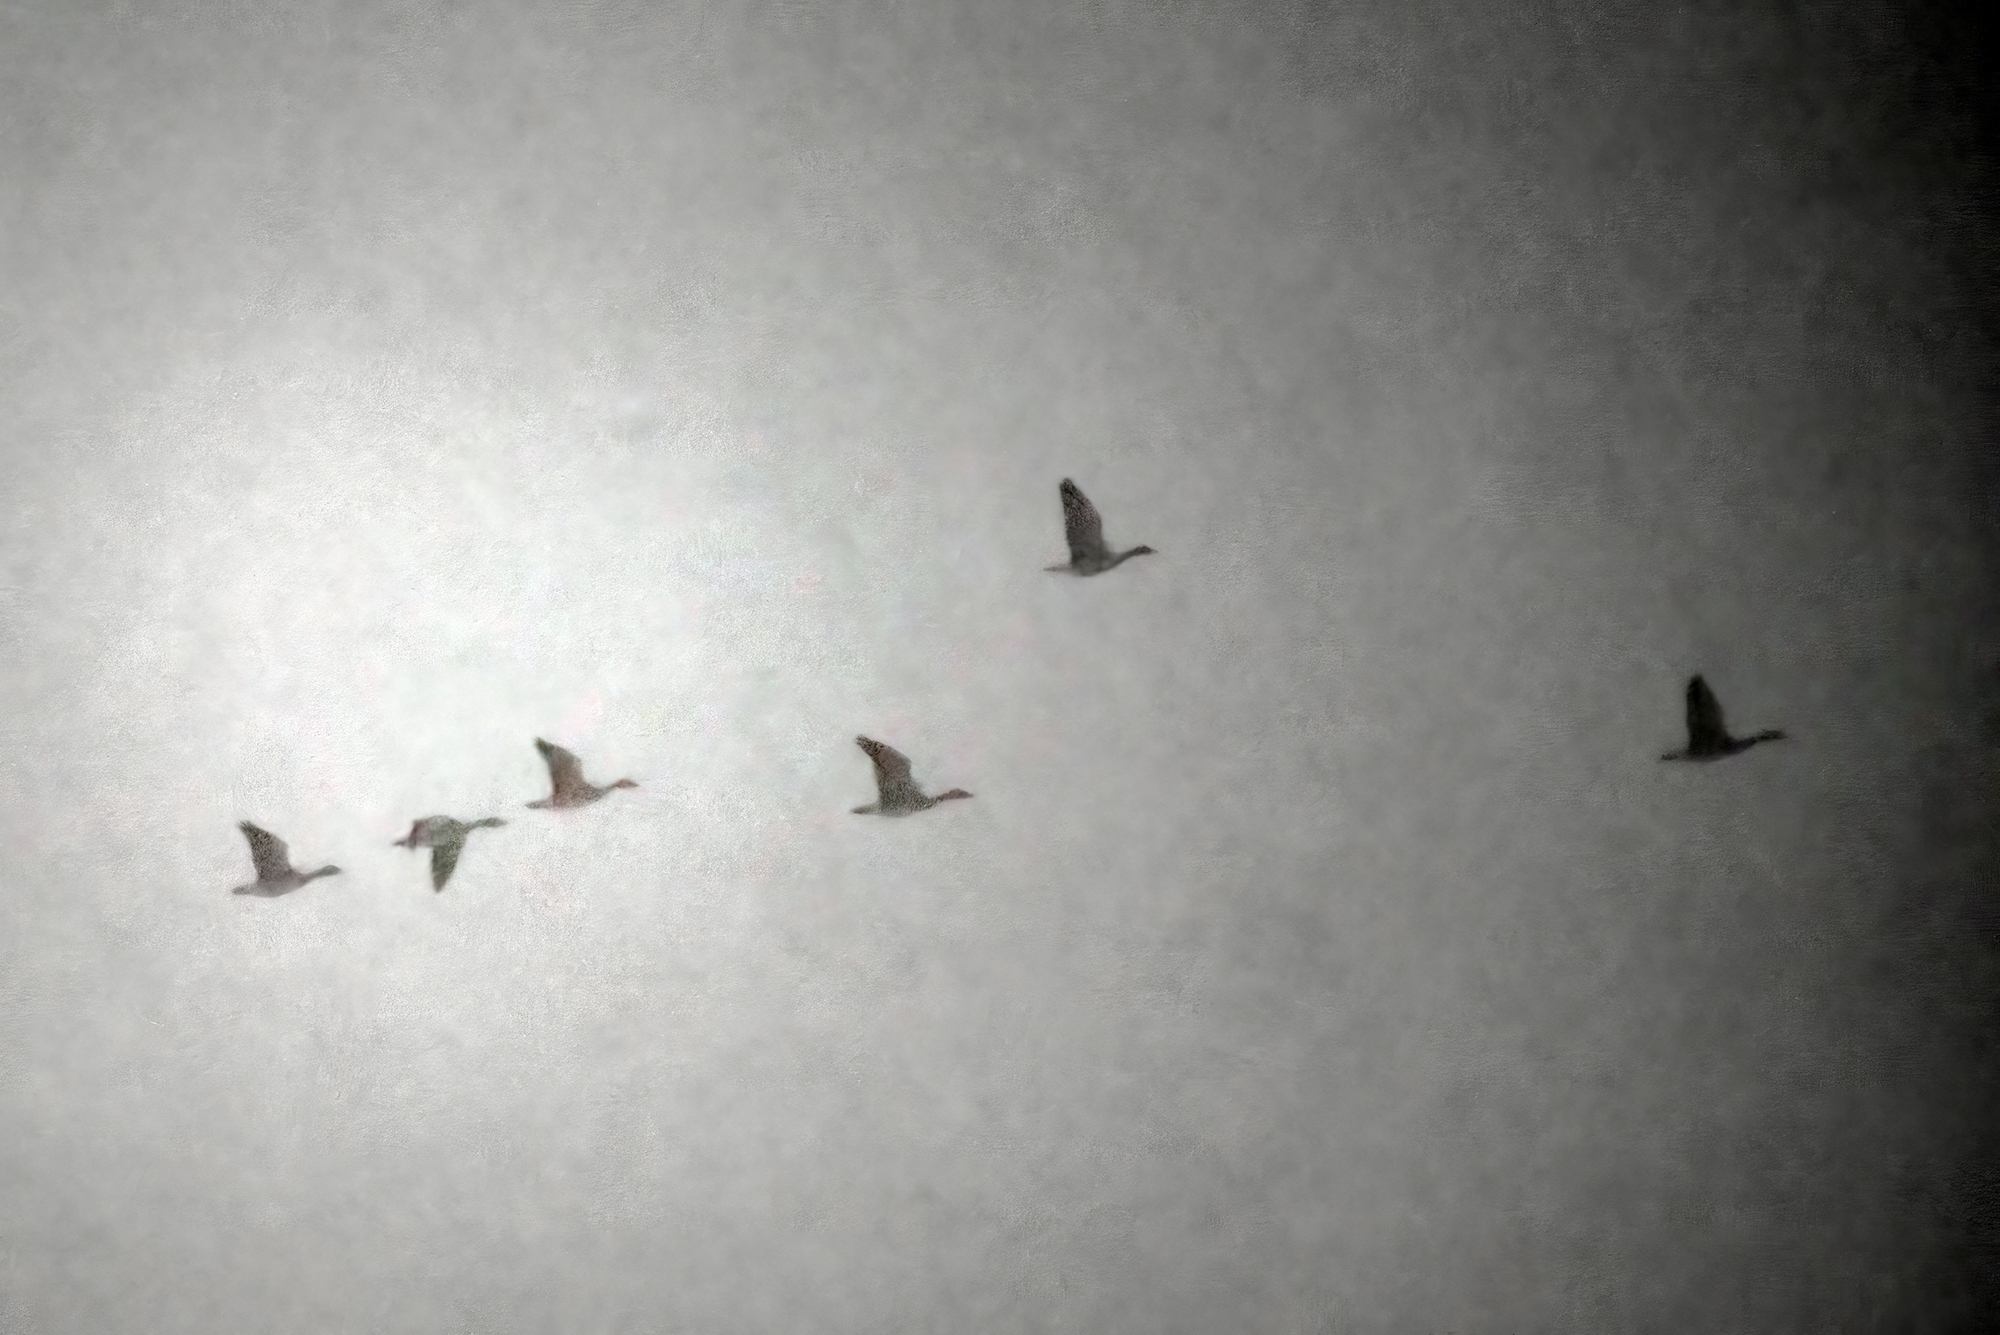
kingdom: Animalia
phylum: Chordata
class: Aves
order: Anseriformes
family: Anatidae
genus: Anser
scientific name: Anser anser
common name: Greylag goose
